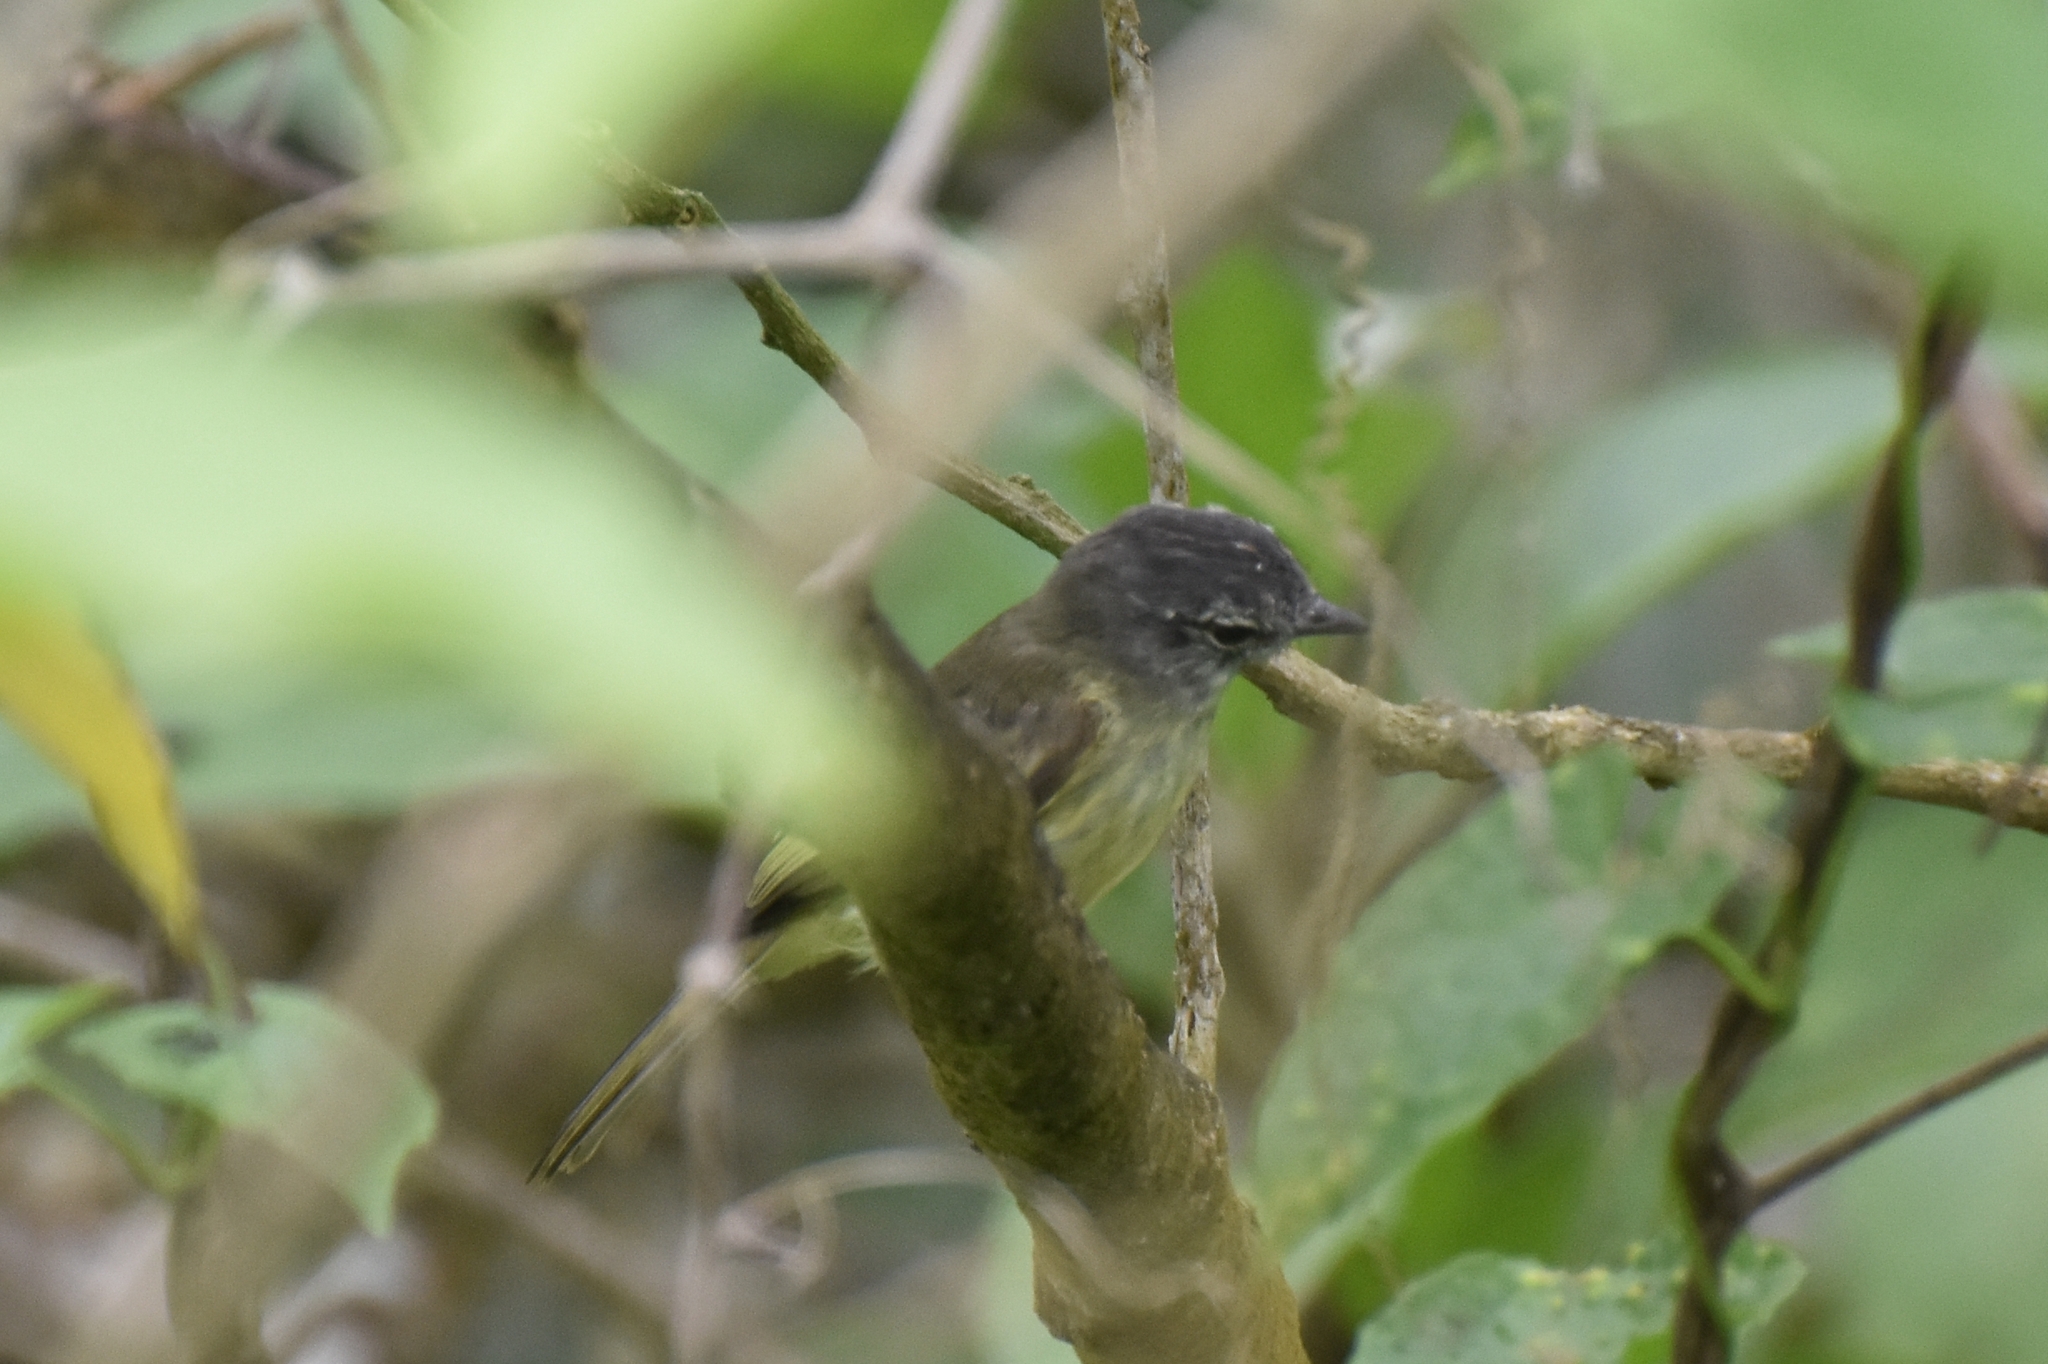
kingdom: Animalia
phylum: Chordata
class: Aves
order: Passeriformes
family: Tyrannidae
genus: Myiopagis
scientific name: Myiopagis gaimardii
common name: Forest elaenia
